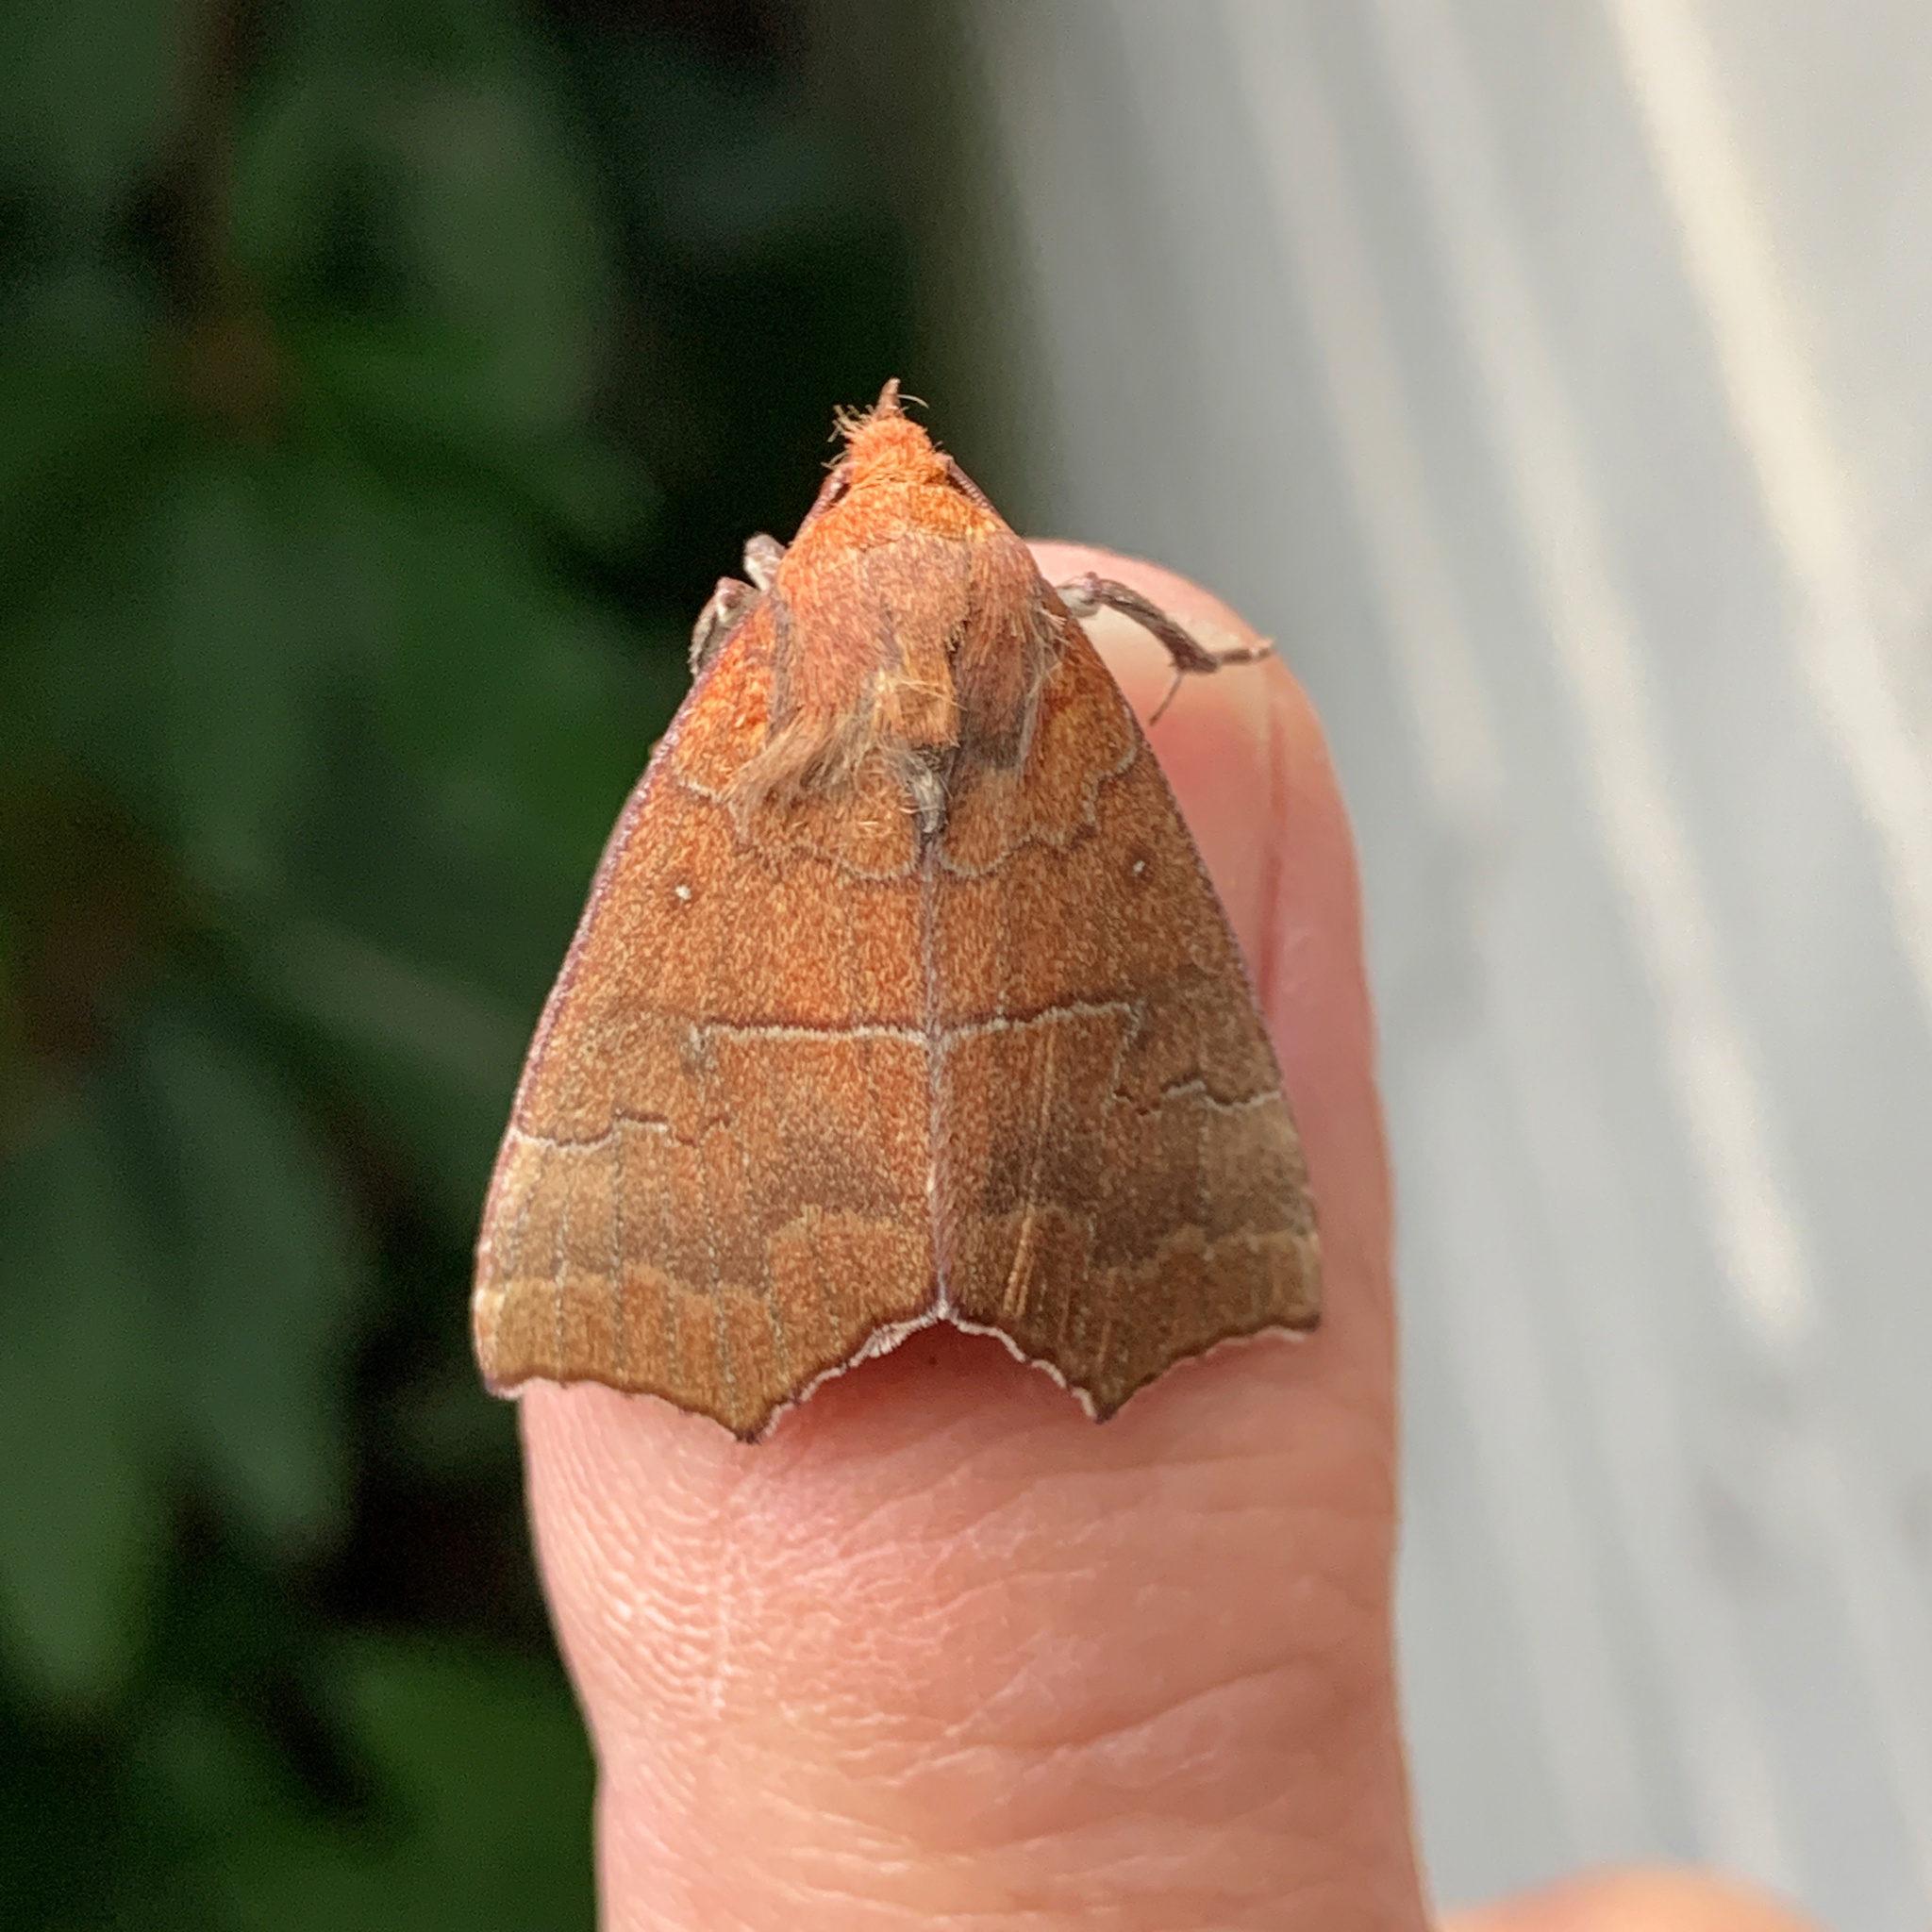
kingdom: Animalia
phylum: Arthropoda
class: Insecta
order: Lepidoptera
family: Erebidae
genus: Rusicada
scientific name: Rusicada privata
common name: Hibiscus leaf caterpillar moth
